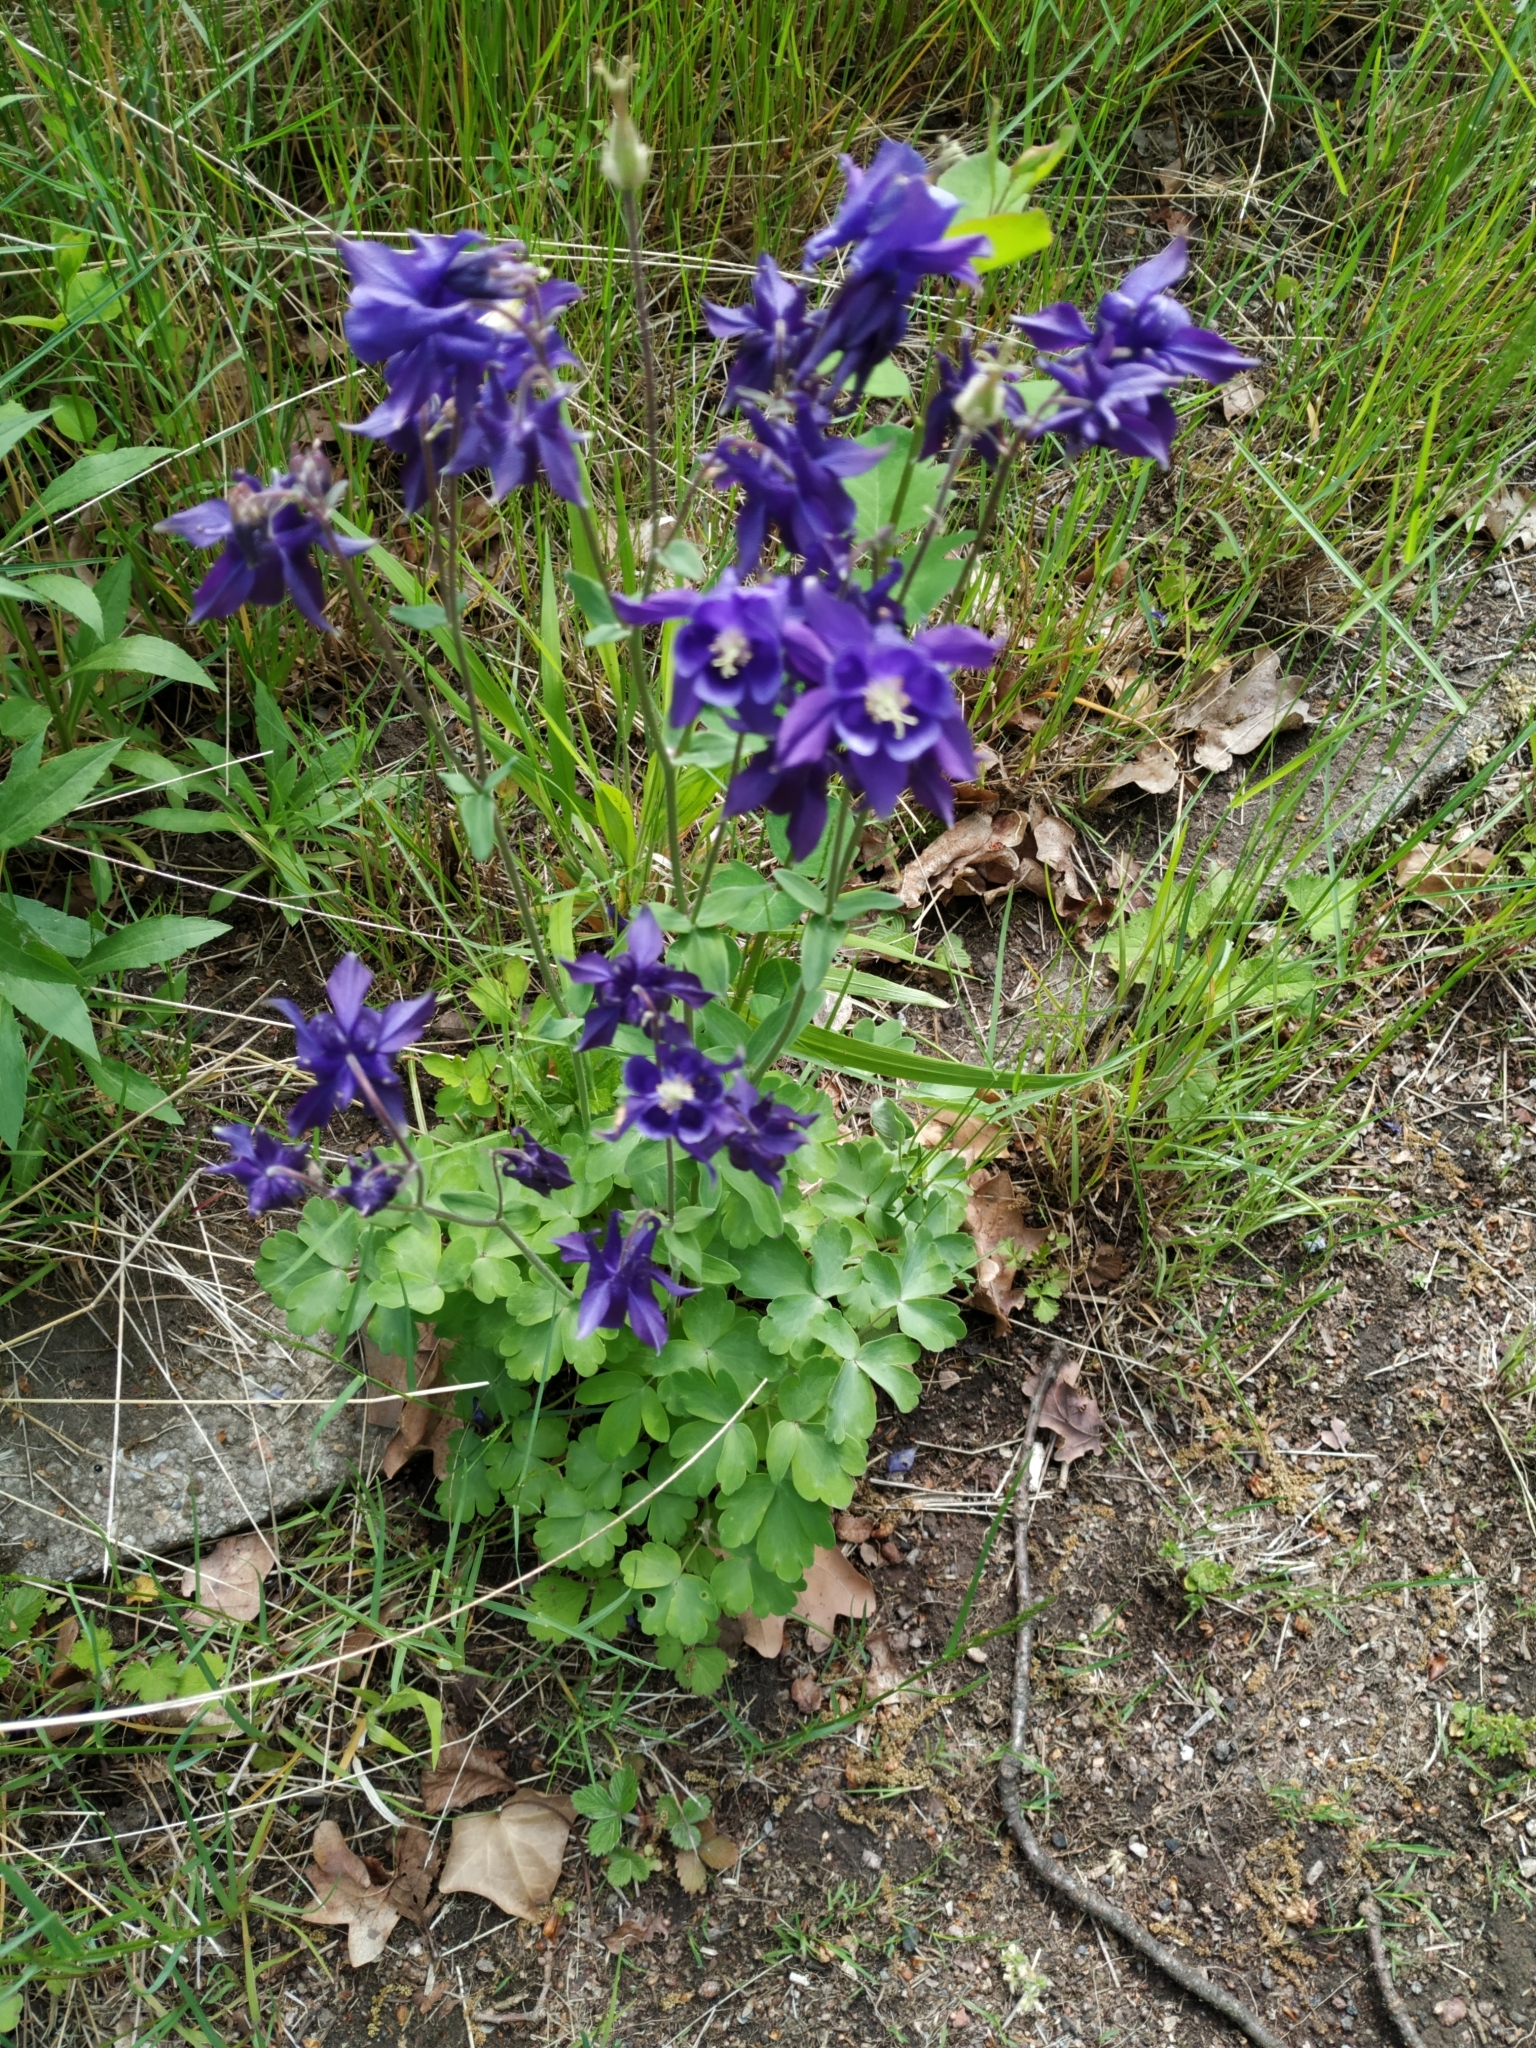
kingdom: Plantae
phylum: Tracheophyta
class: Magnoliopsida
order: Ranunculales
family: Ranunculaceae
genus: Aquilegia
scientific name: Aquilegia vulgaris
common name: Columbine
